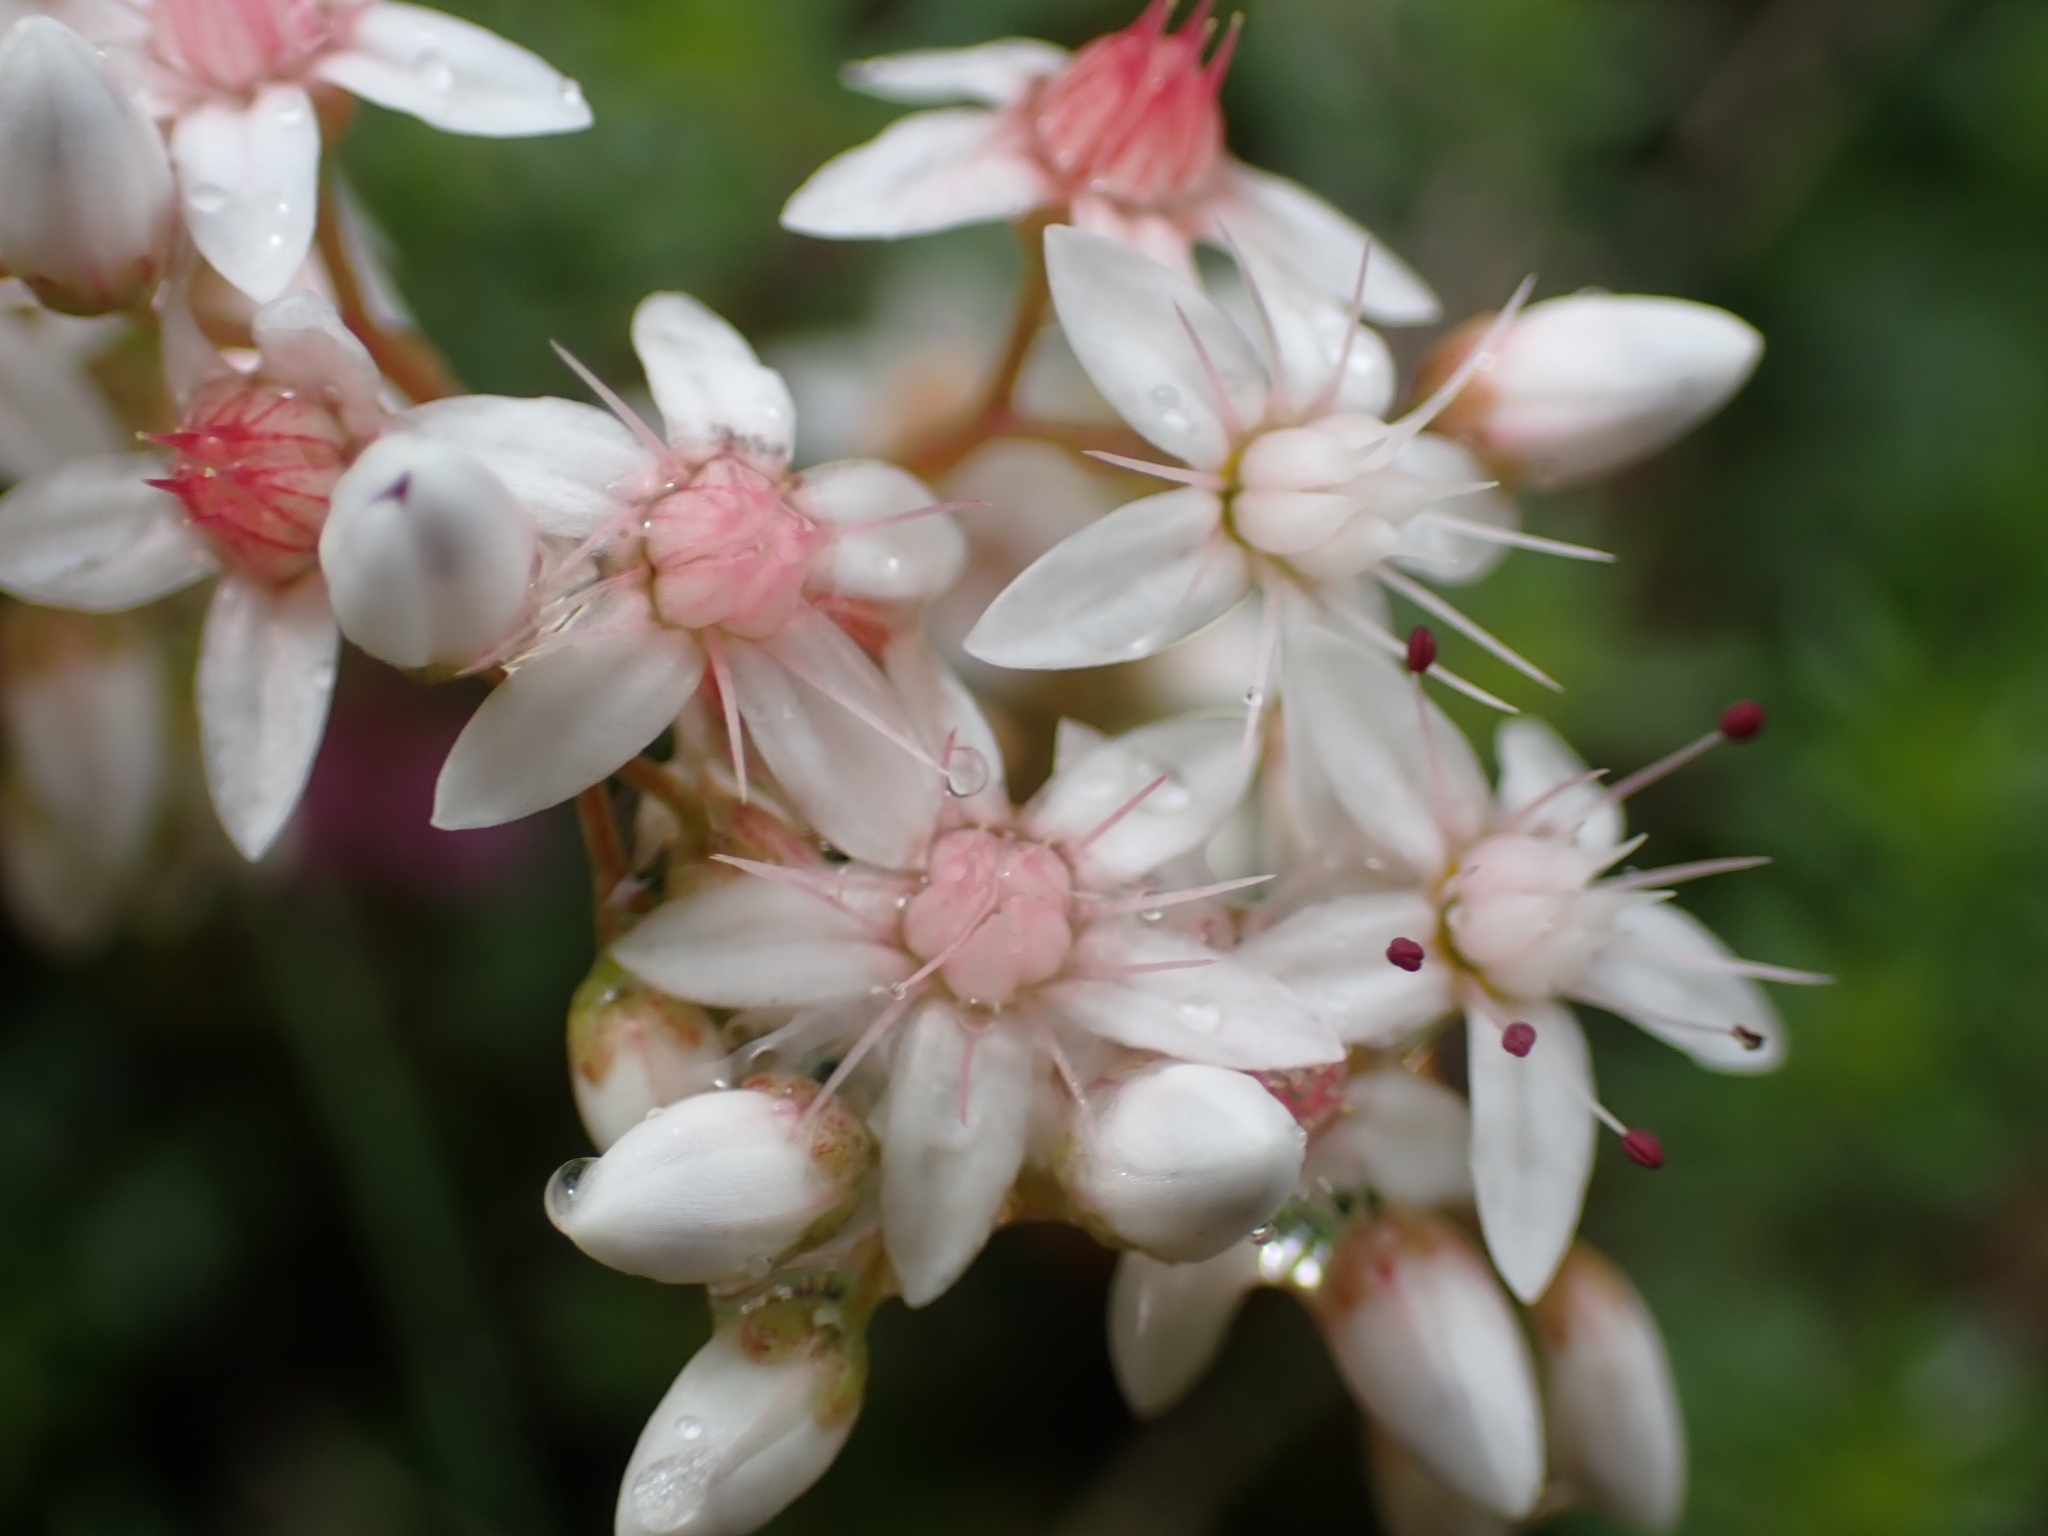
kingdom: Plantae
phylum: Tracheophyta
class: Magnoliopsida
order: Saxifragales
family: Crassulaceae
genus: Sedum
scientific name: Sedum album
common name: White stonecrop
